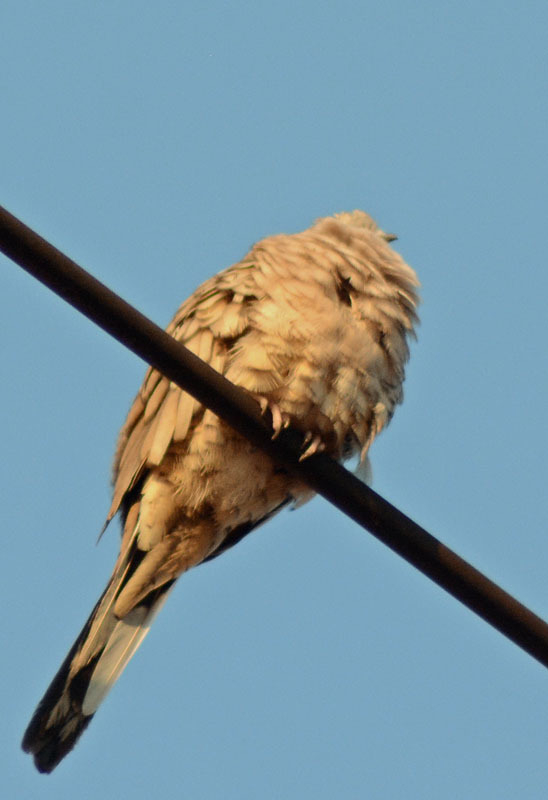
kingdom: Animalia
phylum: Chordata
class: Aves
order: Columbiformes
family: Columbidae
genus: Columbina
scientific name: Columbina inca
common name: Inca dove
